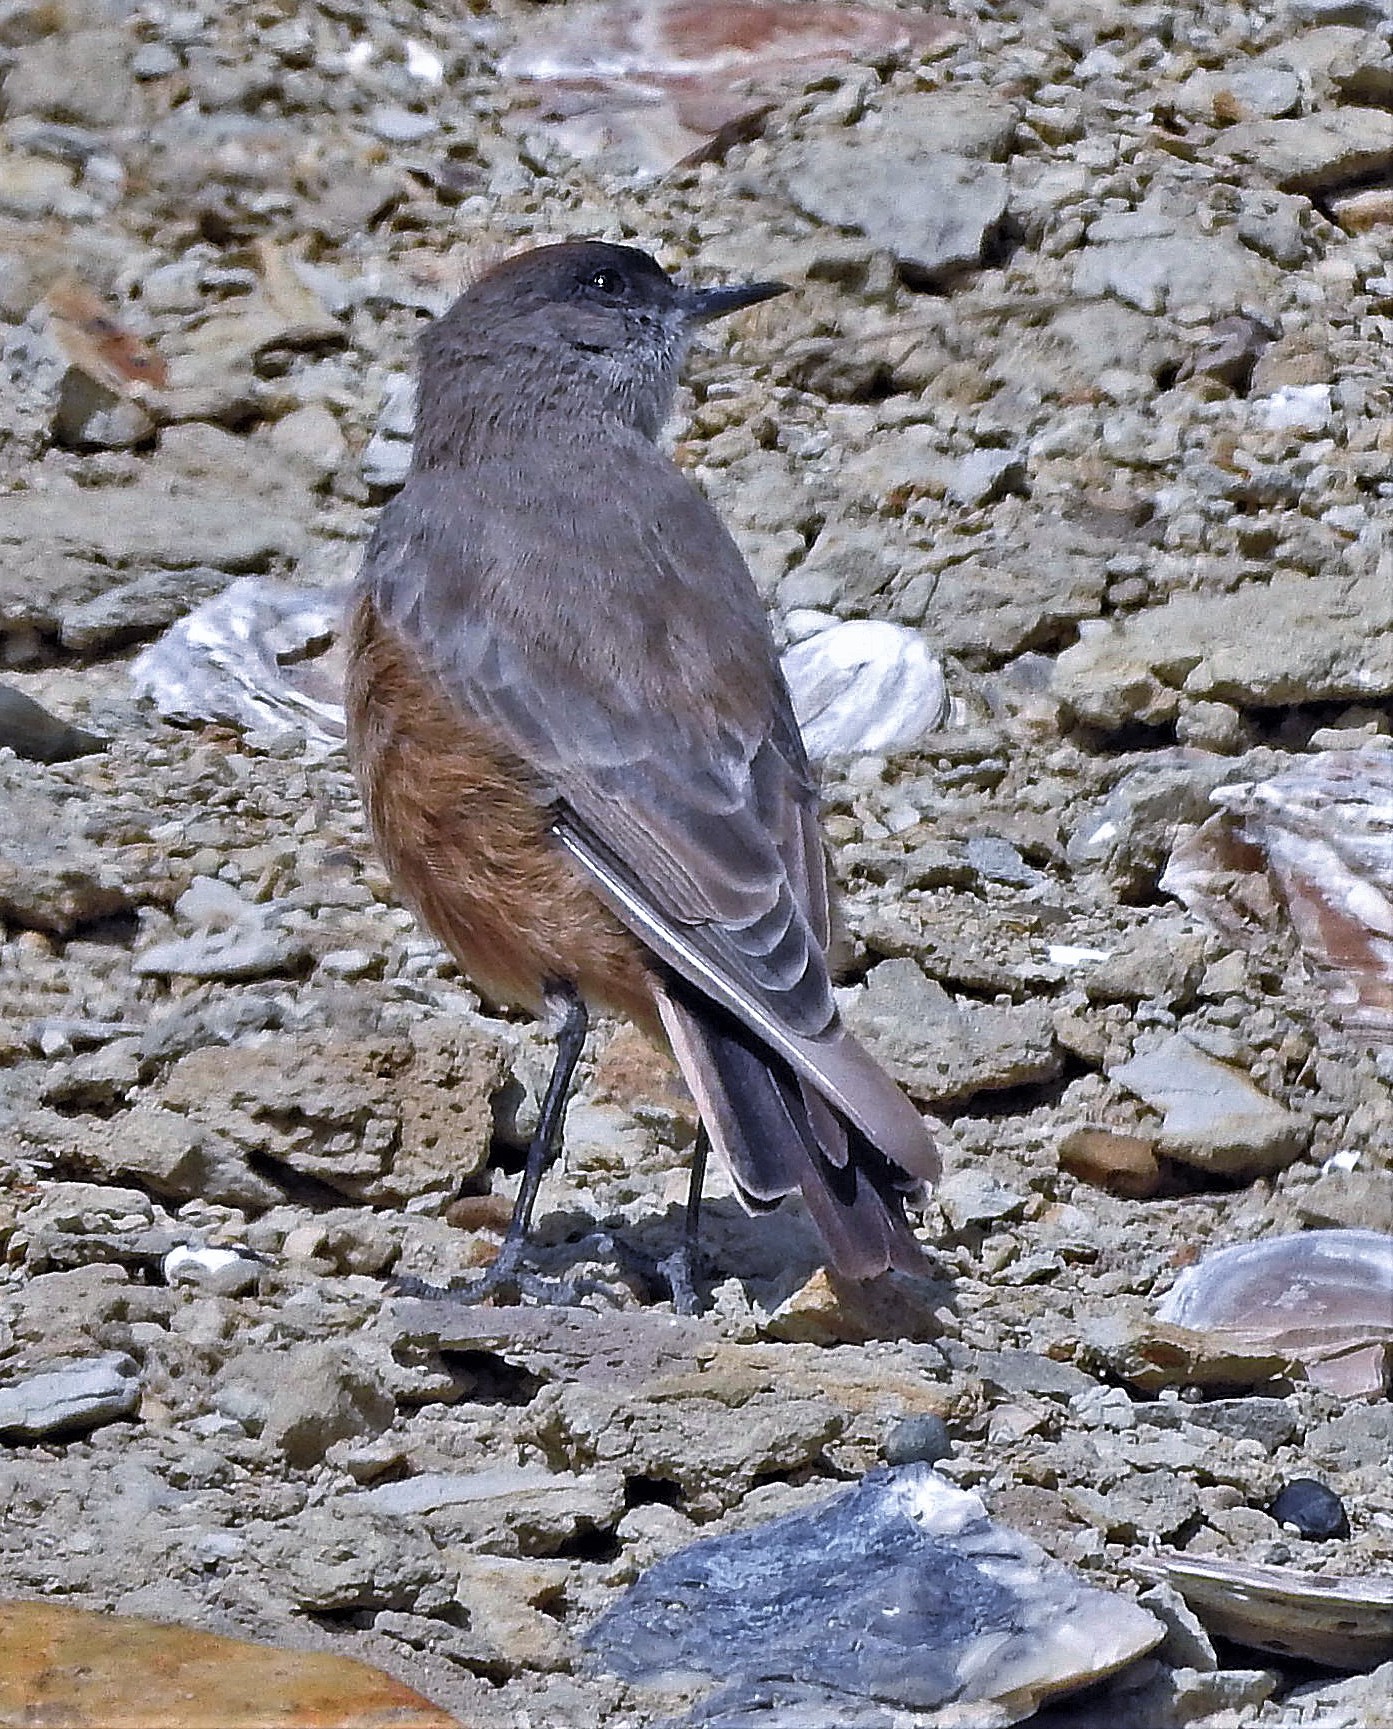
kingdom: Animalia
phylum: Chordata
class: Aves
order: Passeriformes
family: Tyrannidae
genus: Muscisaxicola
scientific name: Muscisaxicola capistratus
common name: Cinnamon-bellied ground tyrant
